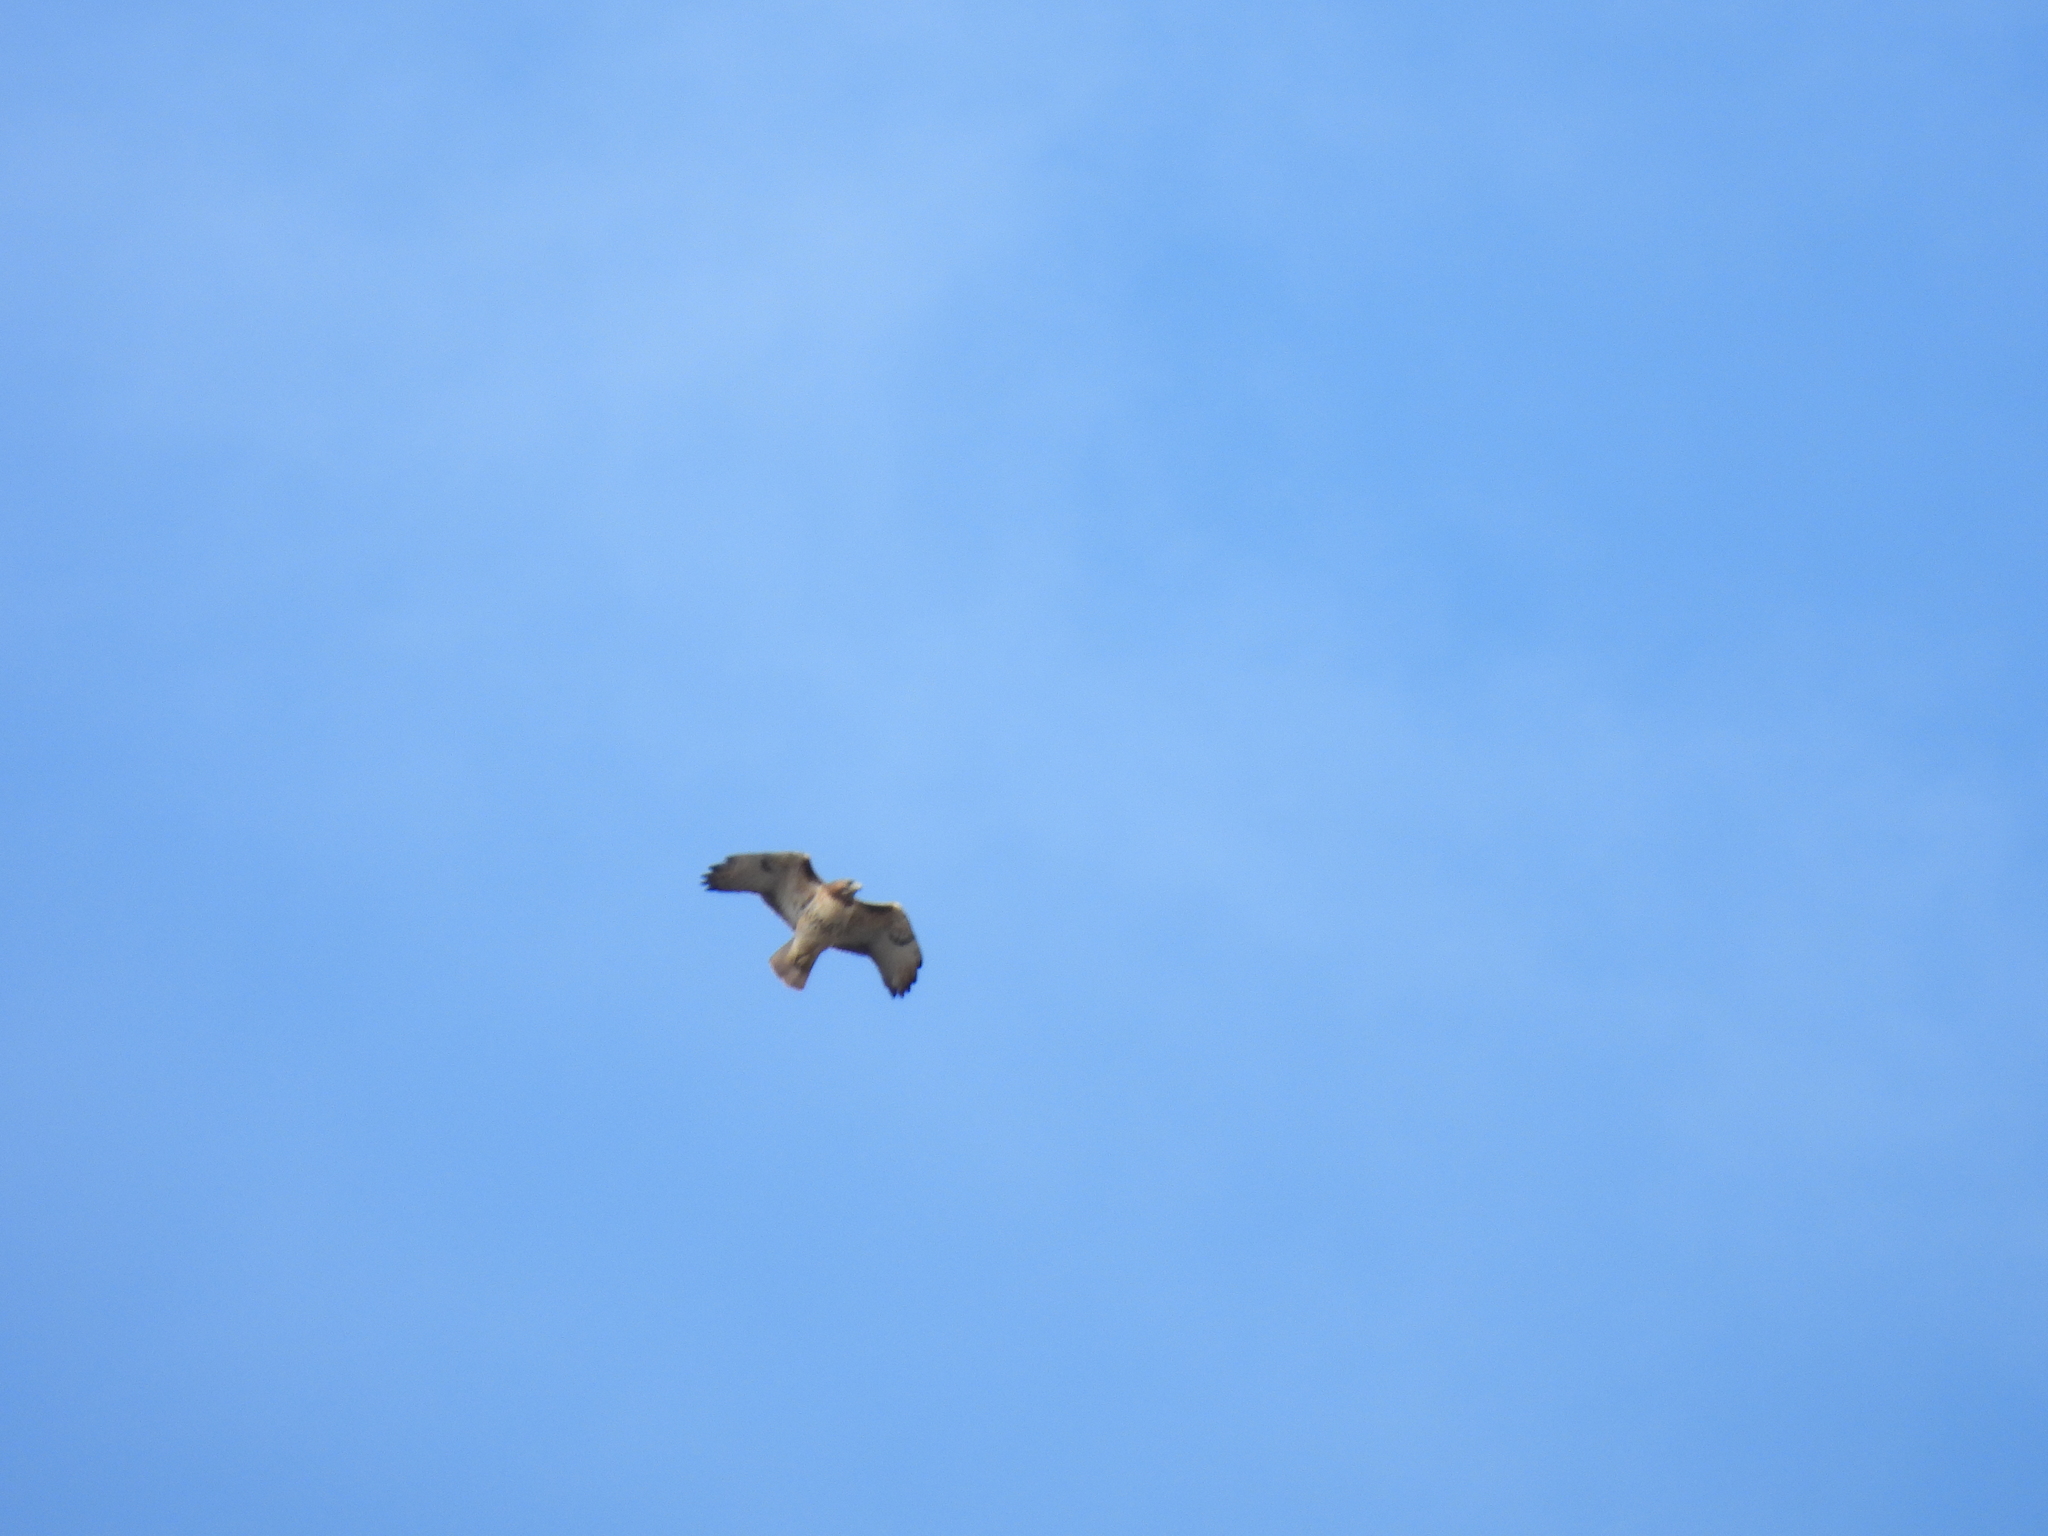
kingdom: Animalia
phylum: Chordata
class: Aves
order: Accipitriformes
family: Accipitridae
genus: Buteo
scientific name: Buteo jamaicensis
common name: Red-tailed hawk
